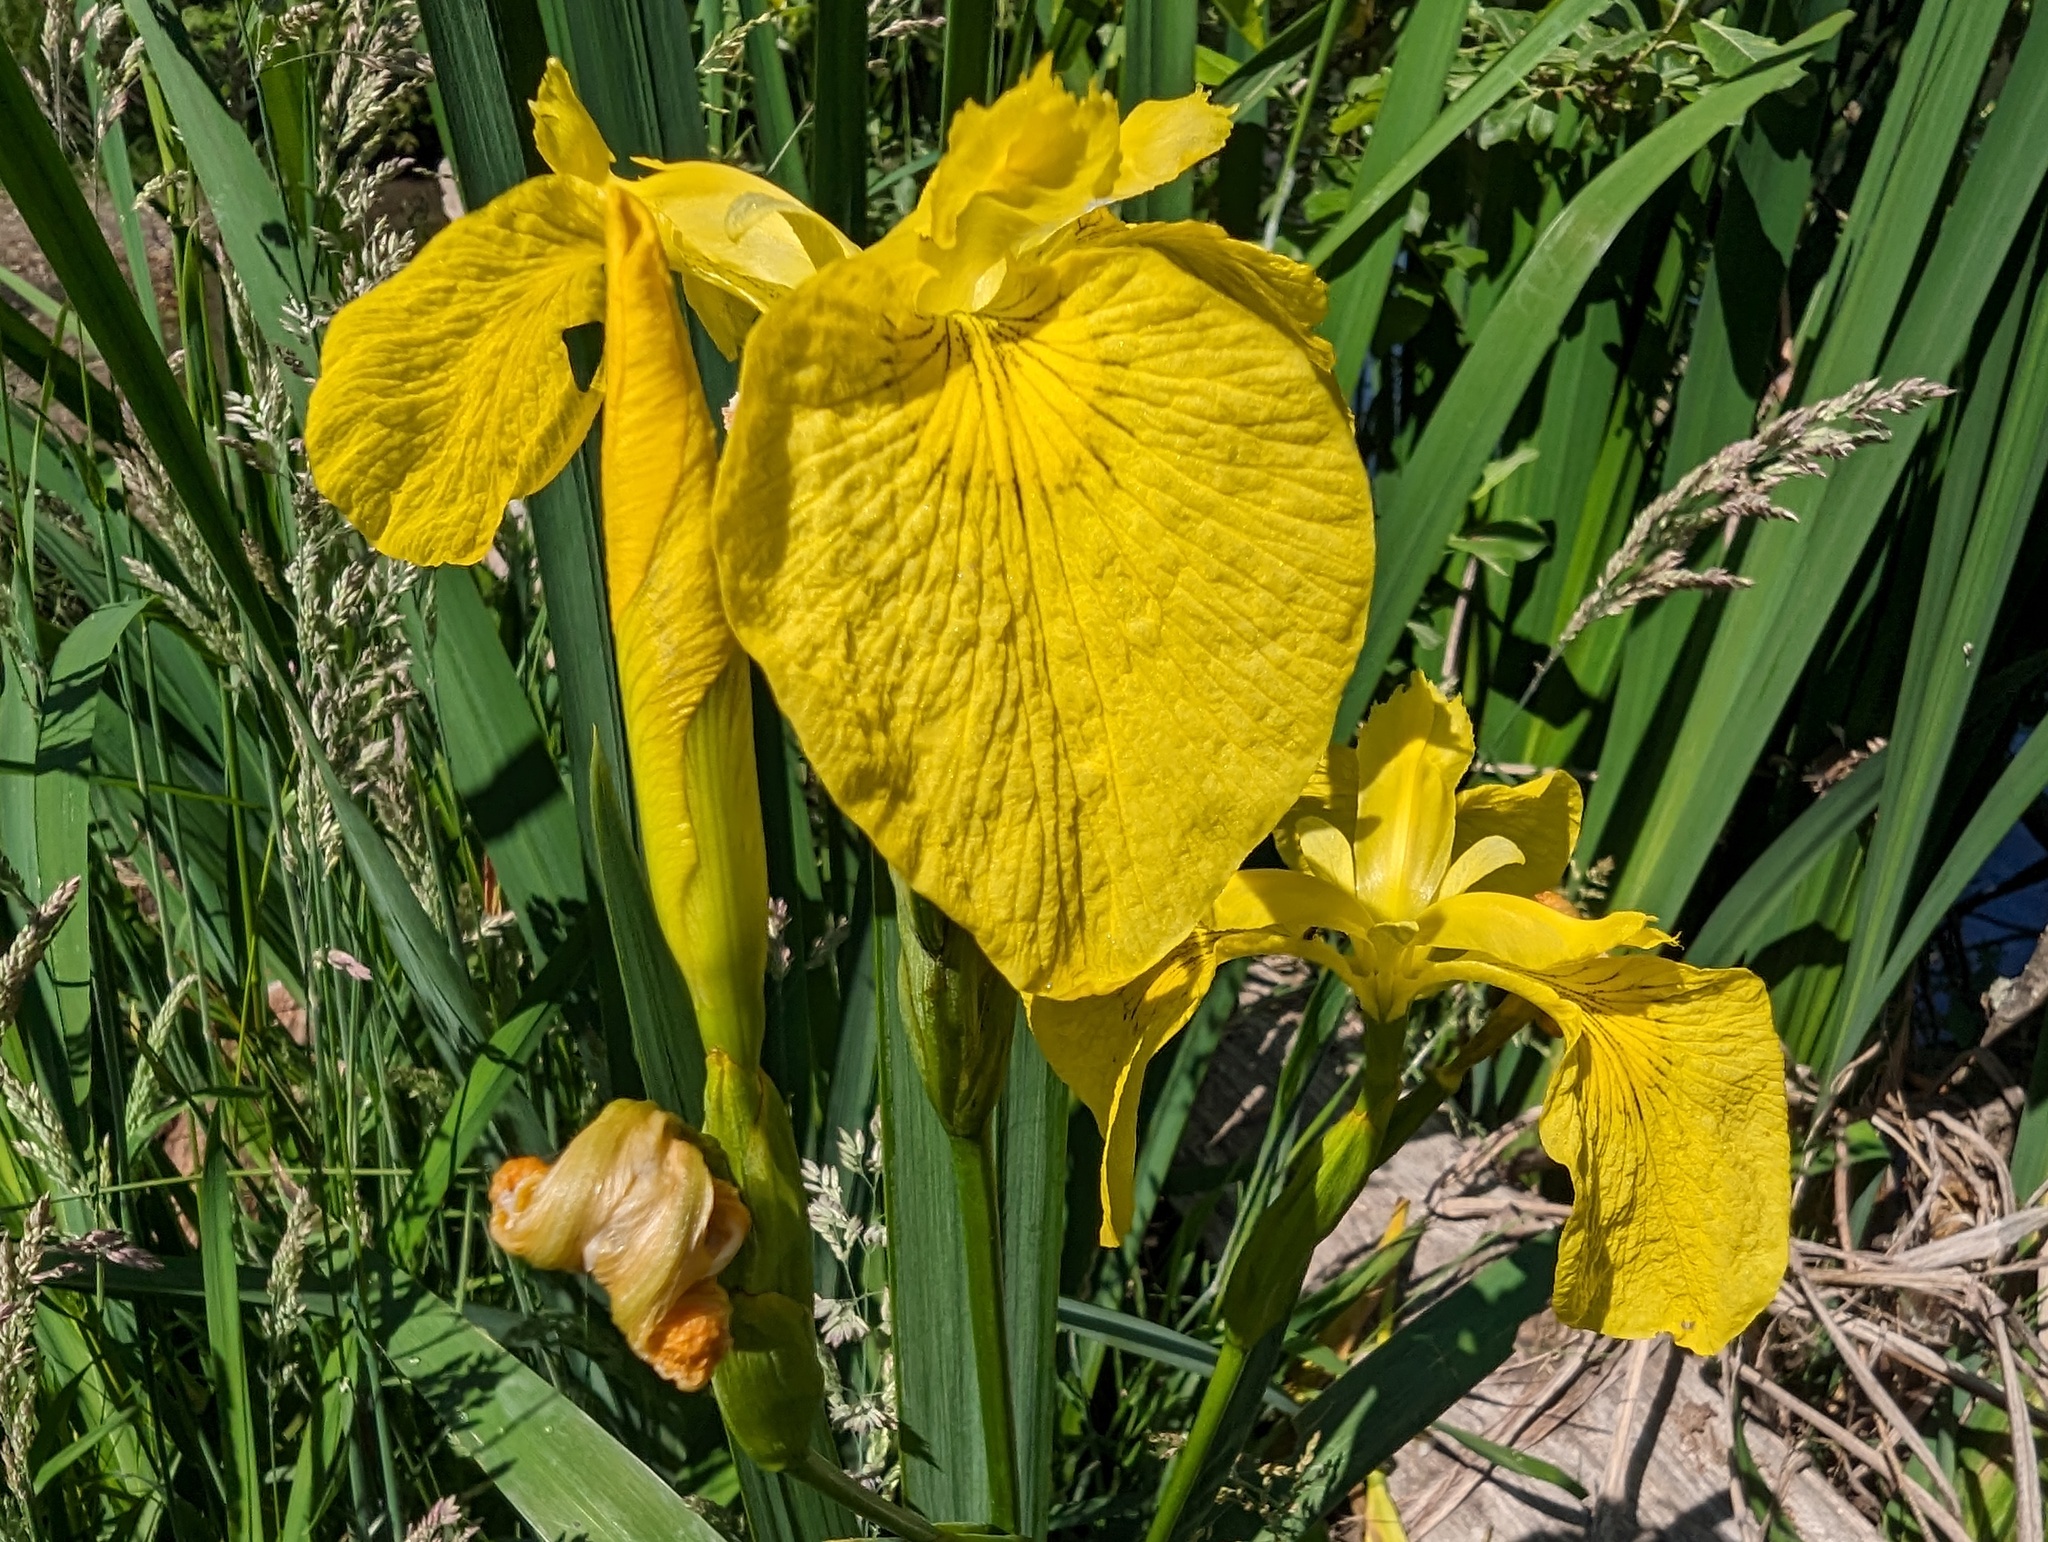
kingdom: Plantae
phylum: Tracheophyta
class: Liliopsida
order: Asparagales
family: Iridaceae
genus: Iris
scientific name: Iris pseudacorus
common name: Yellow flag
